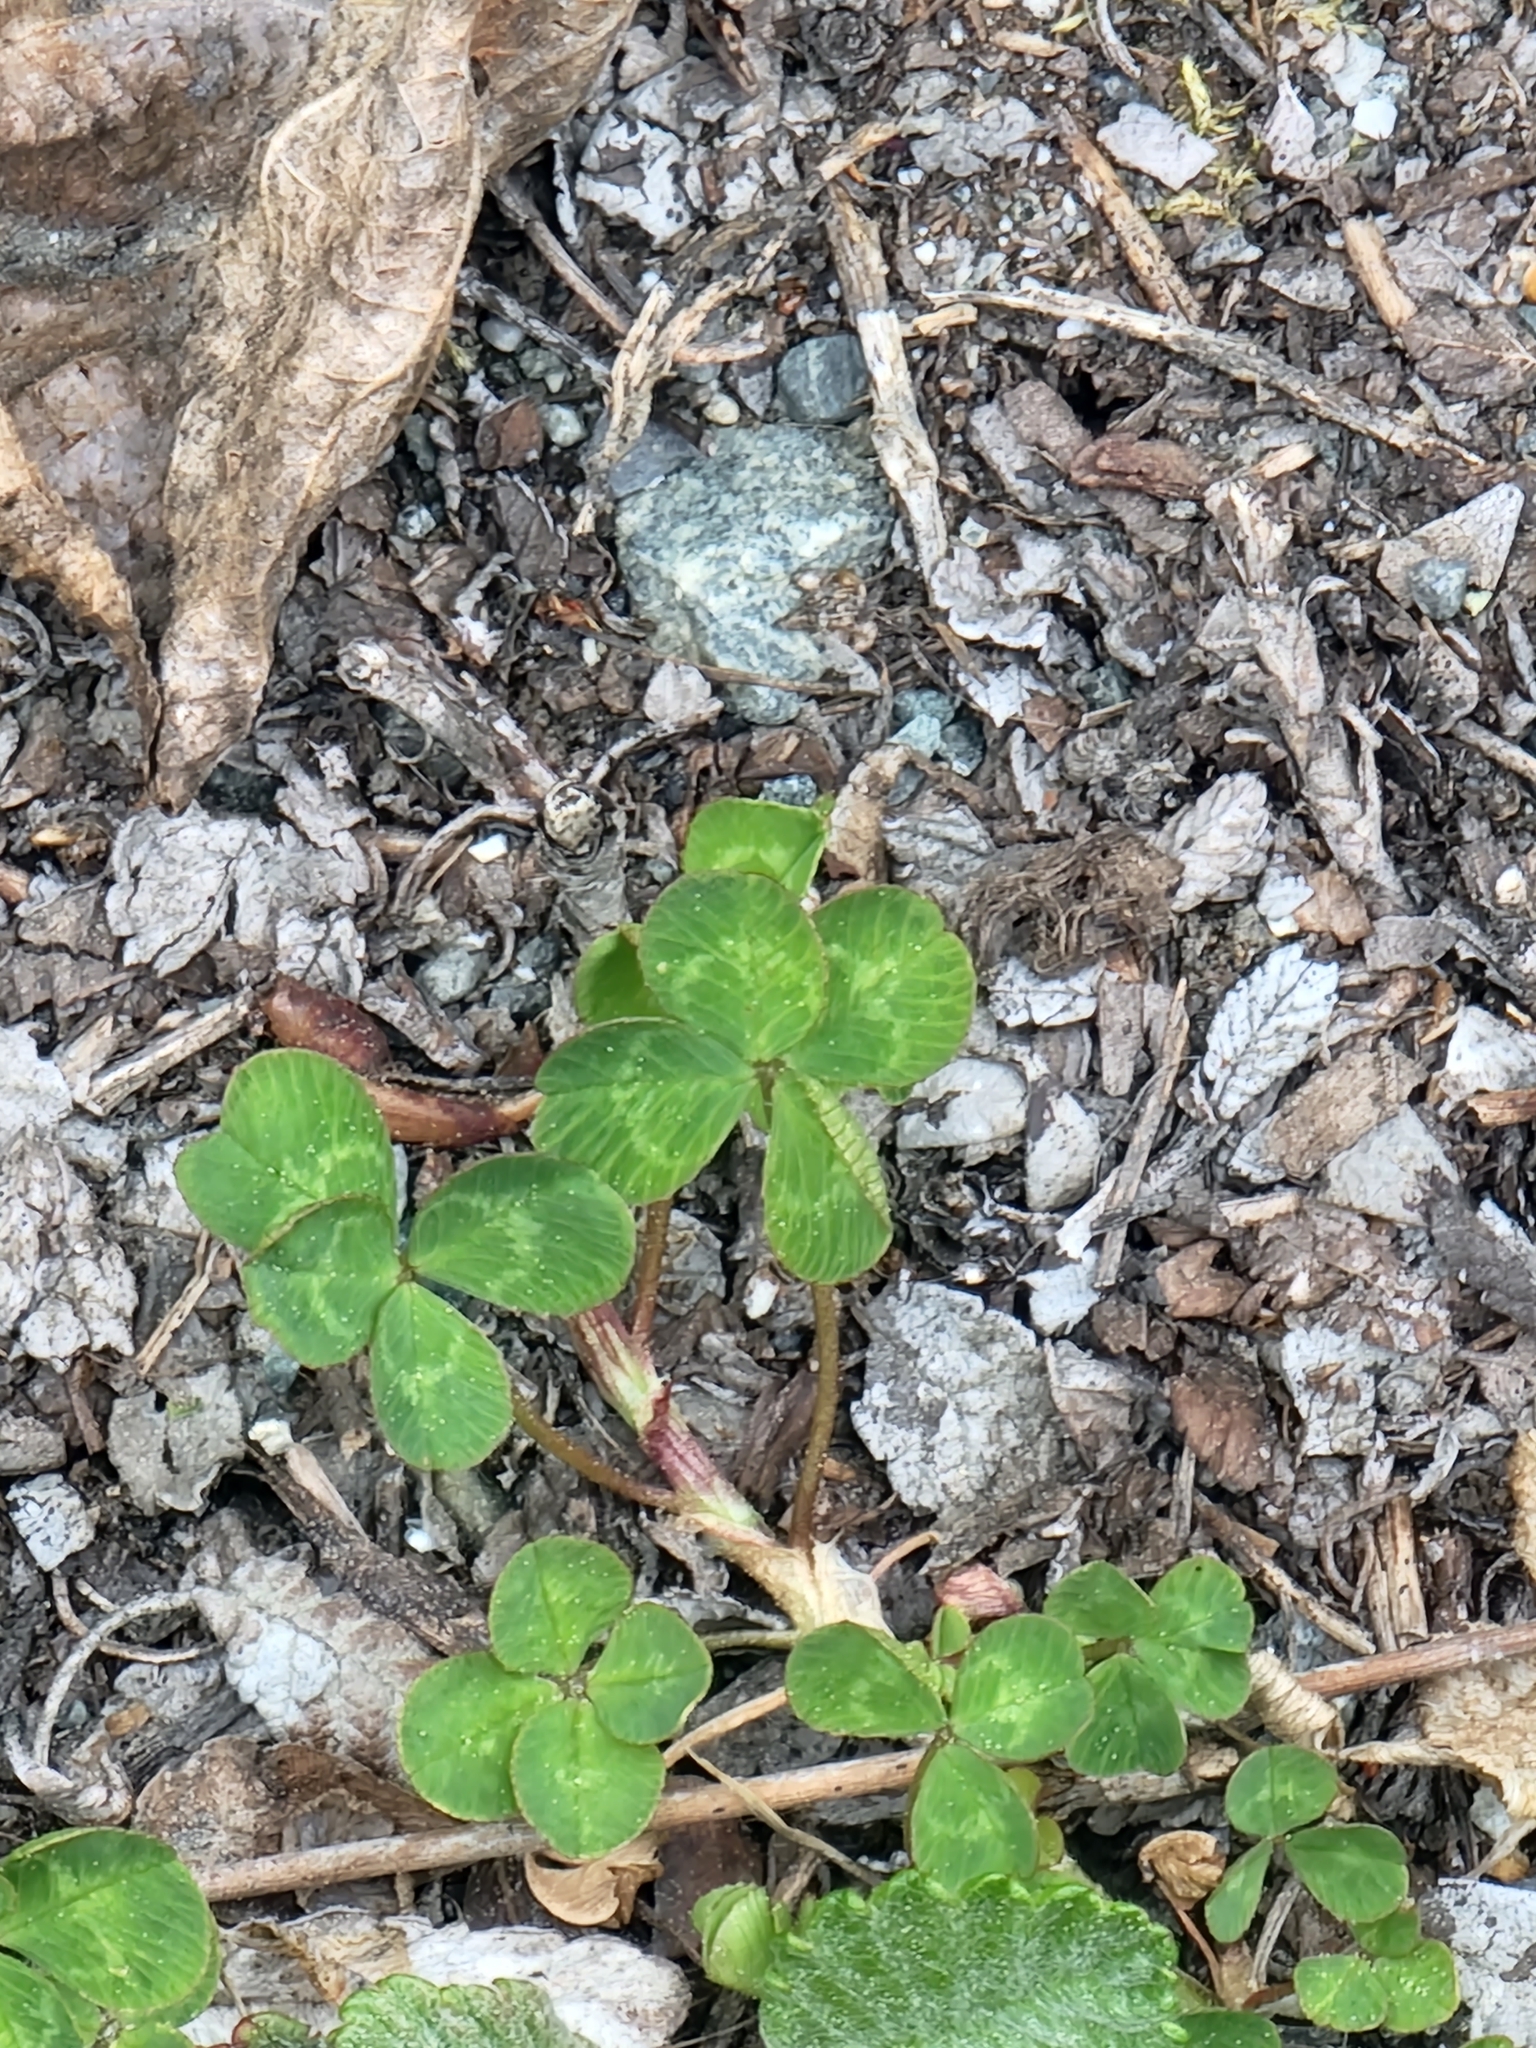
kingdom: Plantae
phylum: Tracheophyta
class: Magnoliopsida
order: Fabales
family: Fabaceae
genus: Trifolium
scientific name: Trifolium repens
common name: White clover
